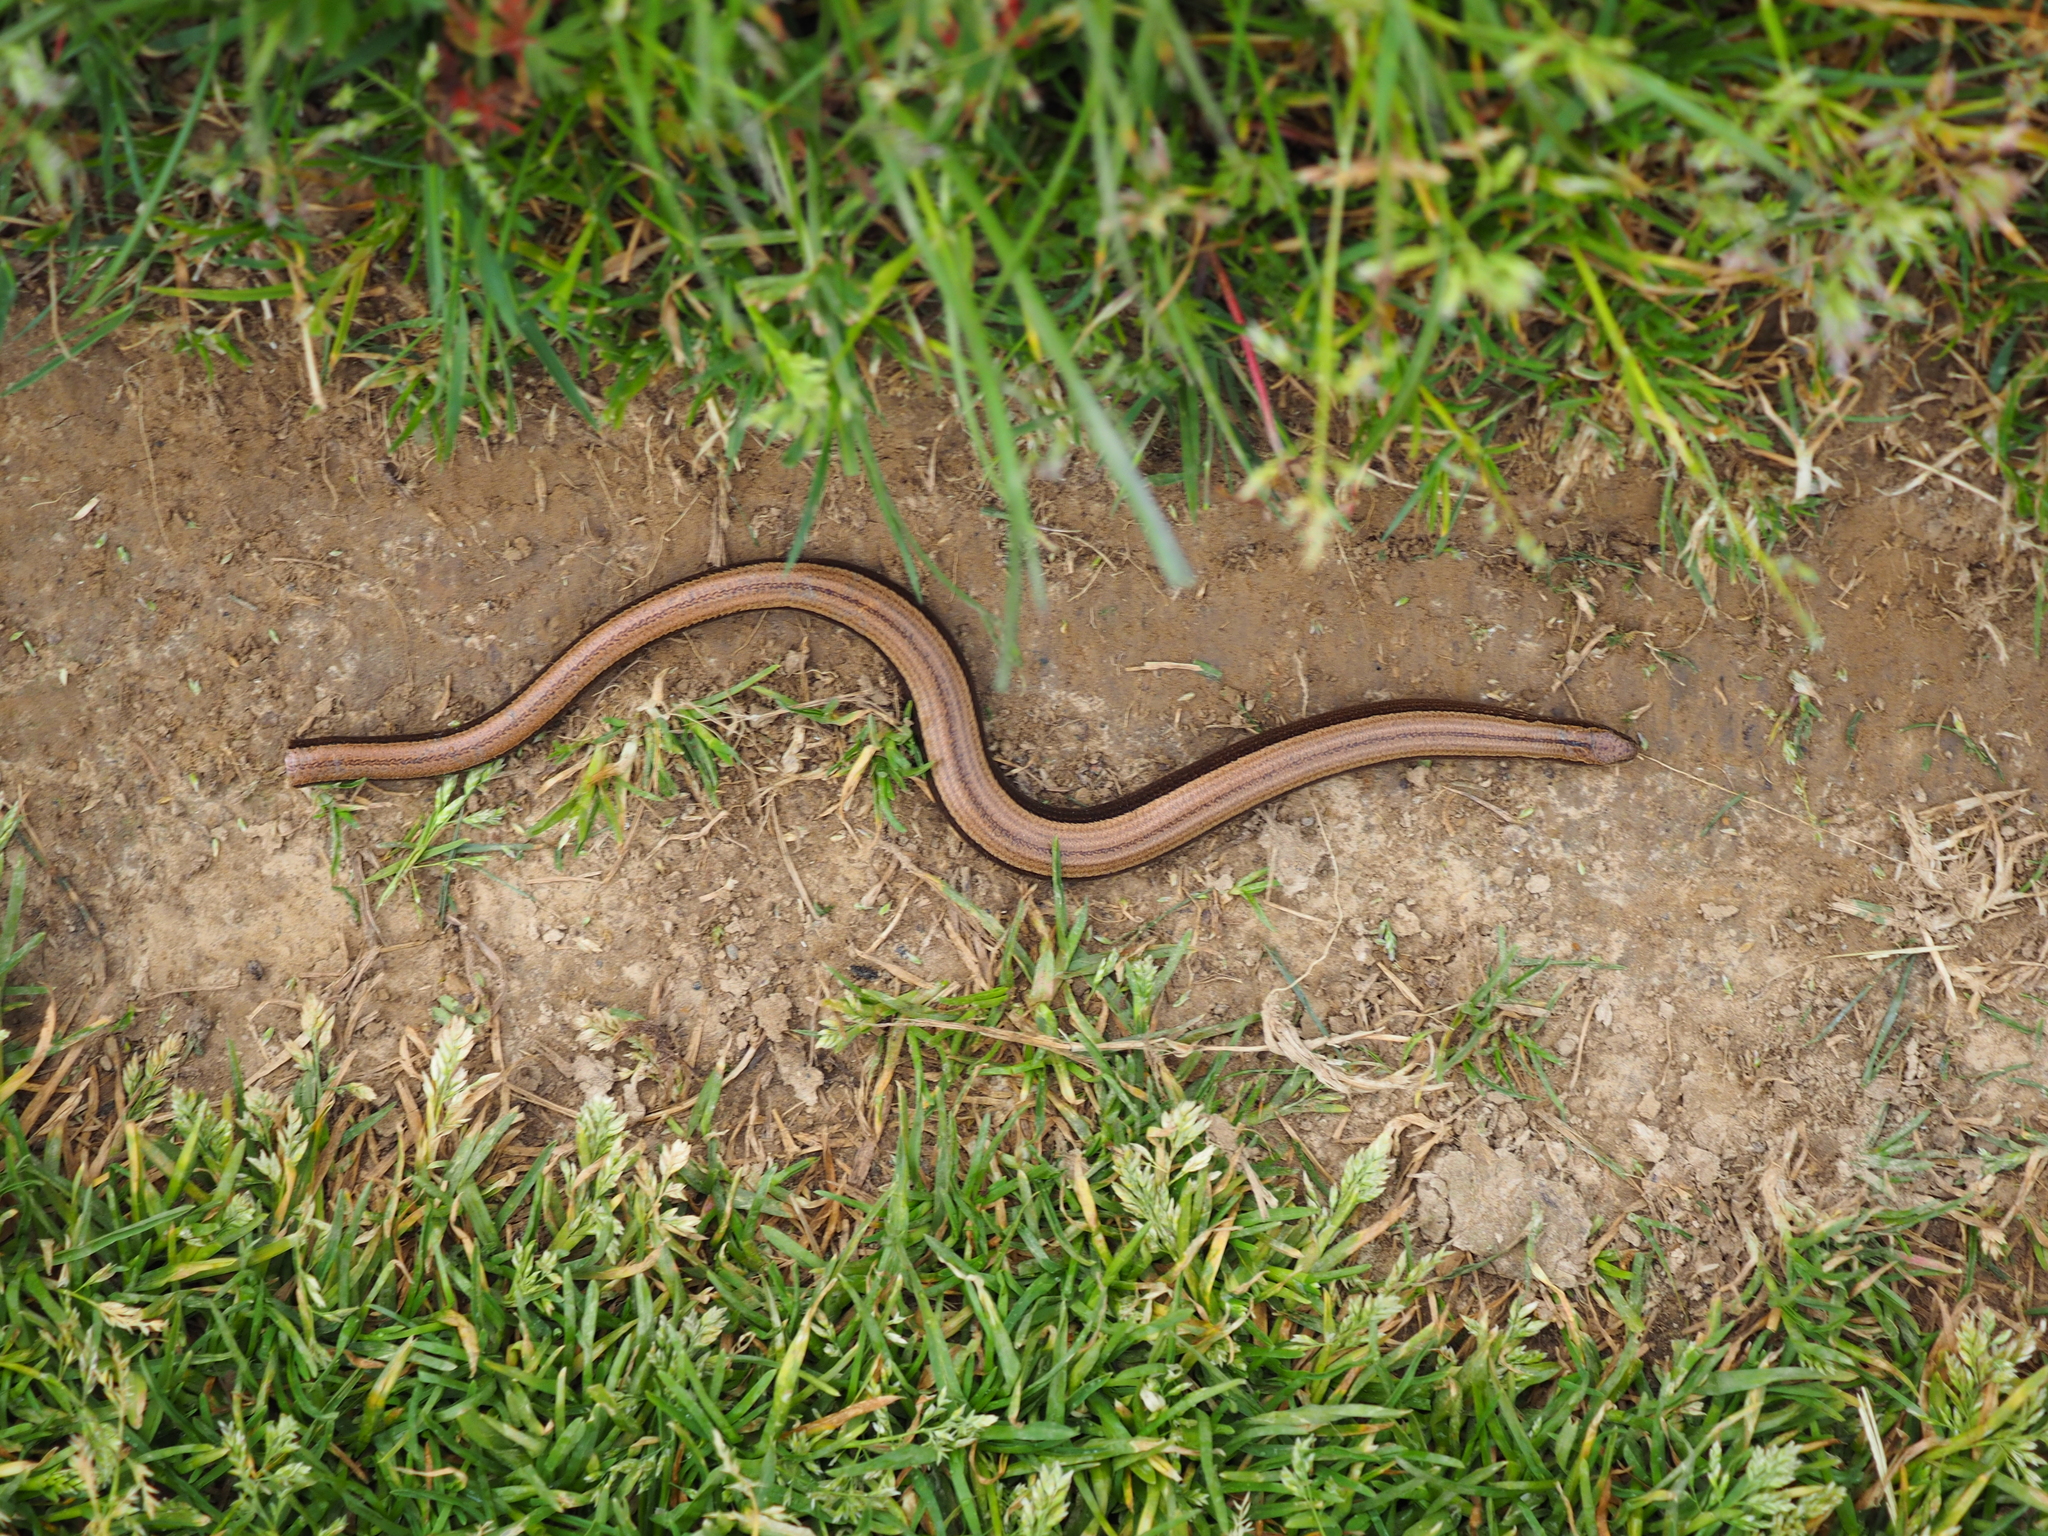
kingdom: Animalia
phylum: Chordata
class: Squamata
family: Anguidae
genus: Anguis
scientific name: Anguis fragilis
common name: Slow worm
